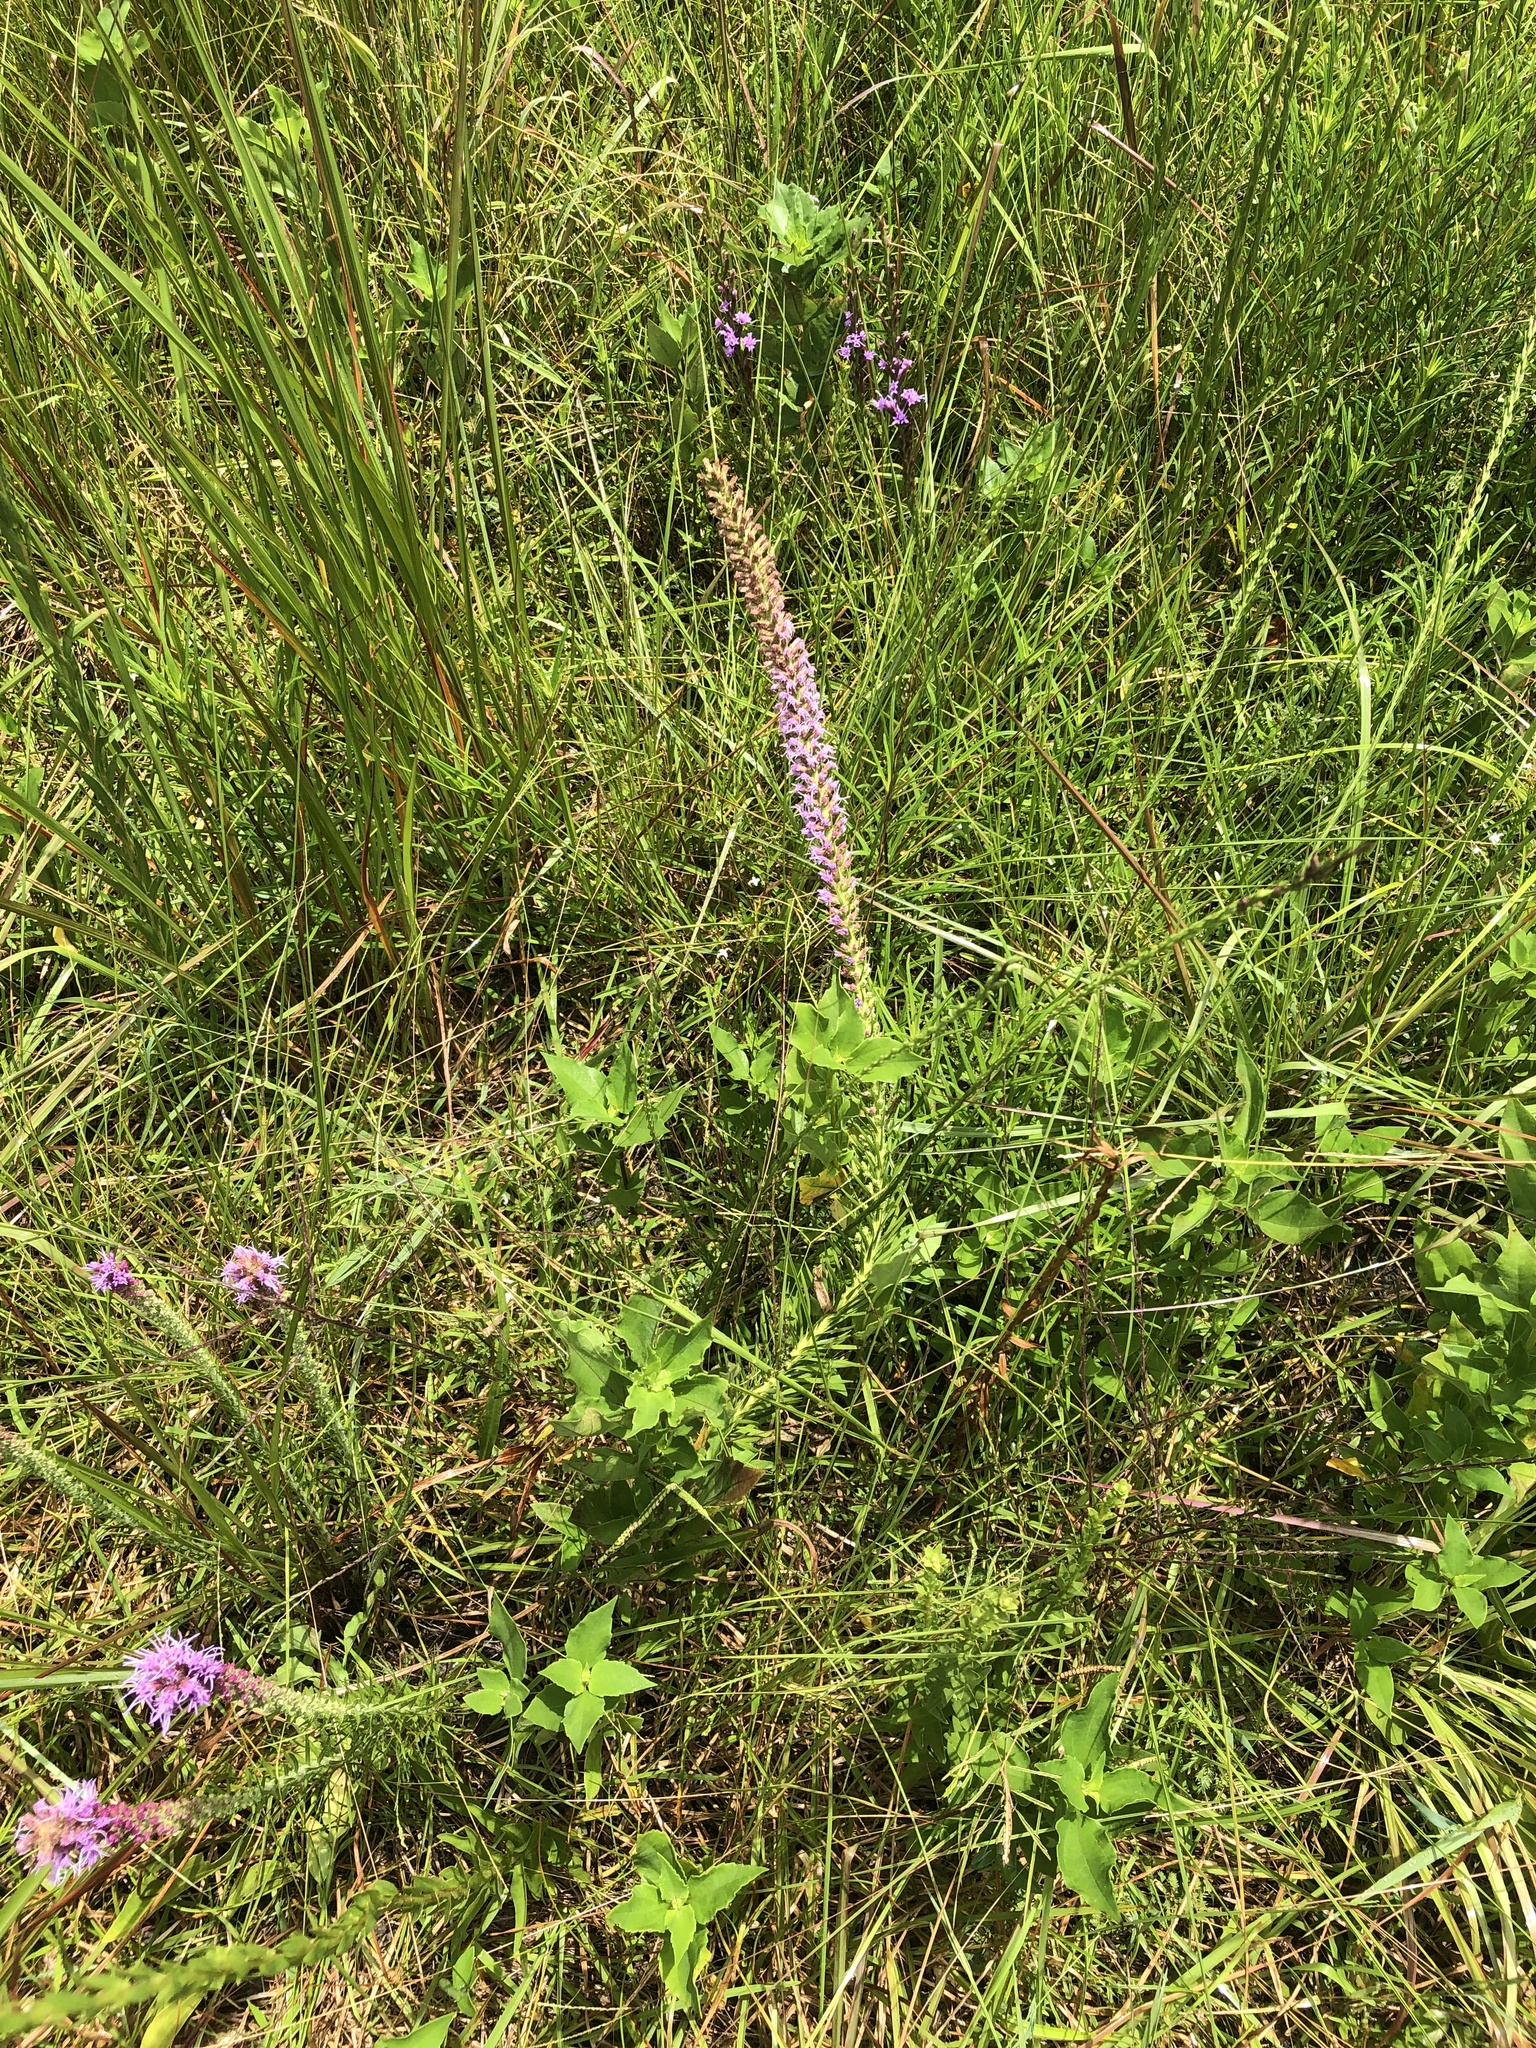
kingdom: Plantae
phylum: Tracheophyta
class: Magnoliopsida
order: Asterales
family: Asteraceae
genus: Liatris
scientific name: Liatris pycnostachya
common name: Cattail gayfeather
